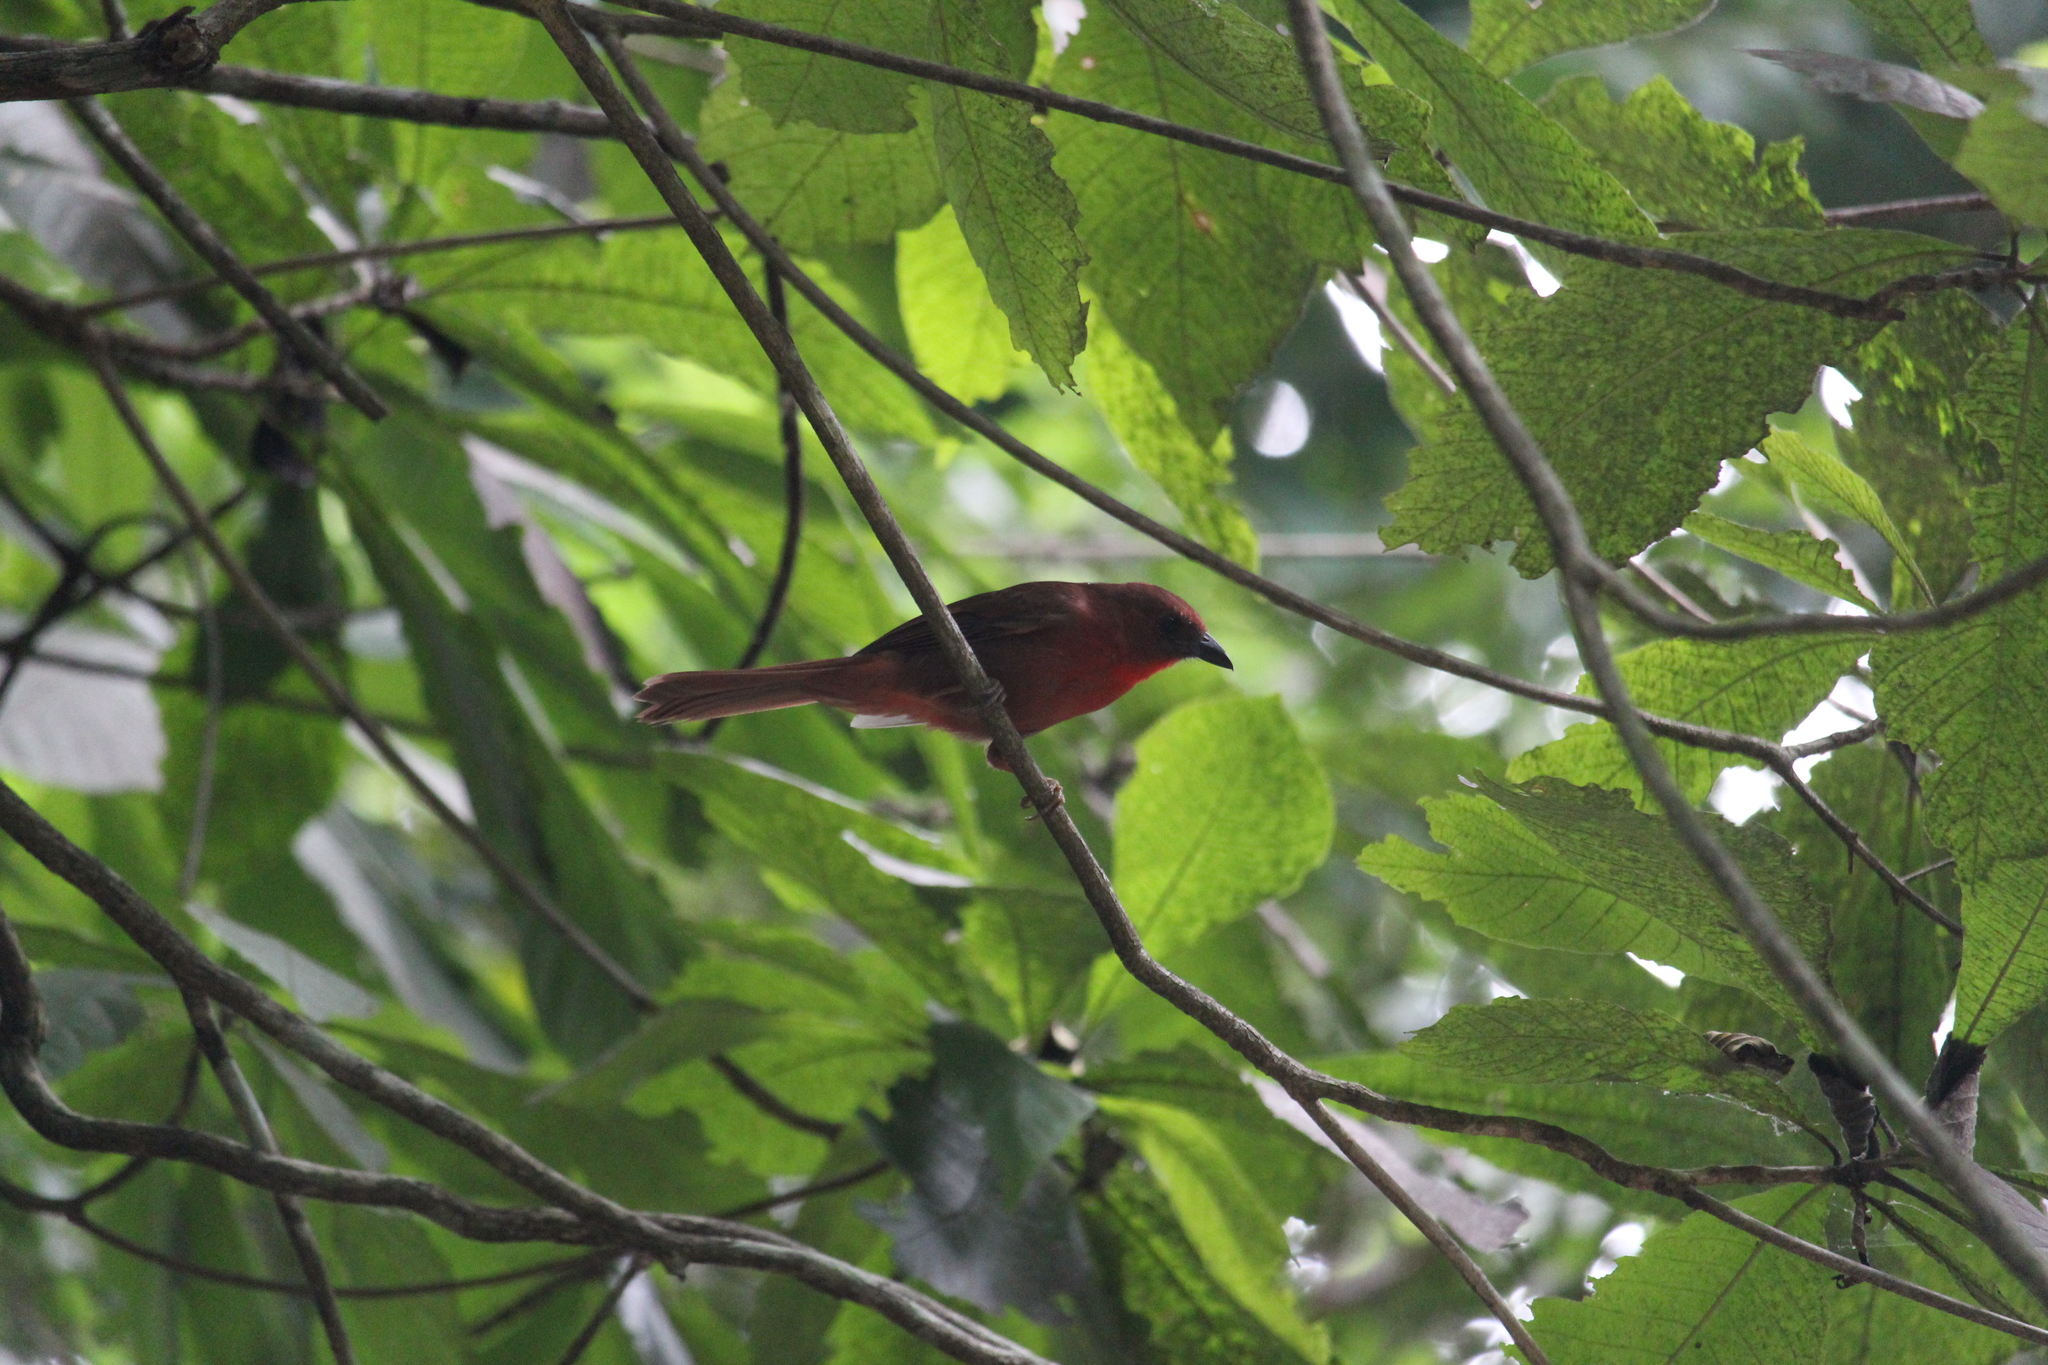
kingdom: Animalia
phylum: Chordata
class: Aves
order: Passeriformes
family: Cardinalidae
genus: Habia
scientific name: Habia fuscicauda
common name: Red-throated ant-tanager
